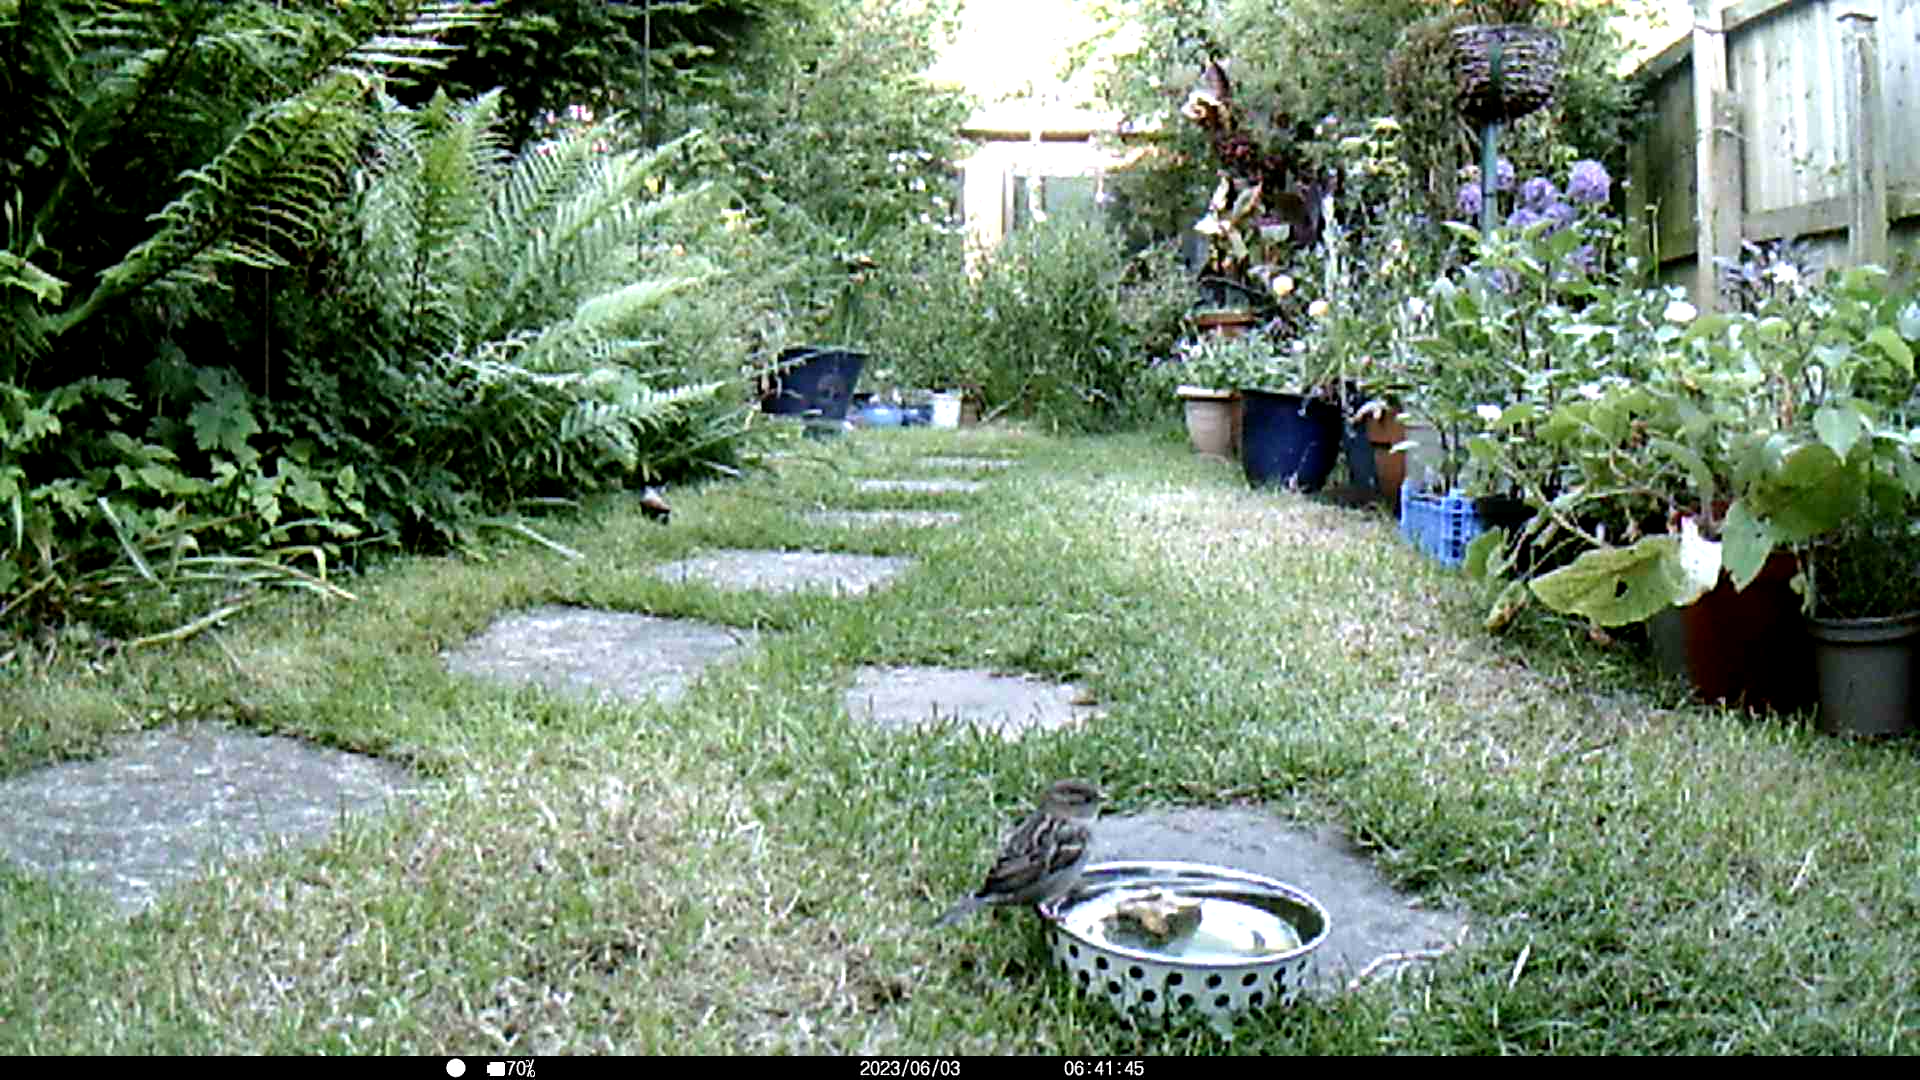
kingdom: Animalia
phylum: Chordata
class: Aves
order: Passeriformes
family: Passeridae
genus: Passer
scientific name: Passer domesticus
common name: House sparrow
